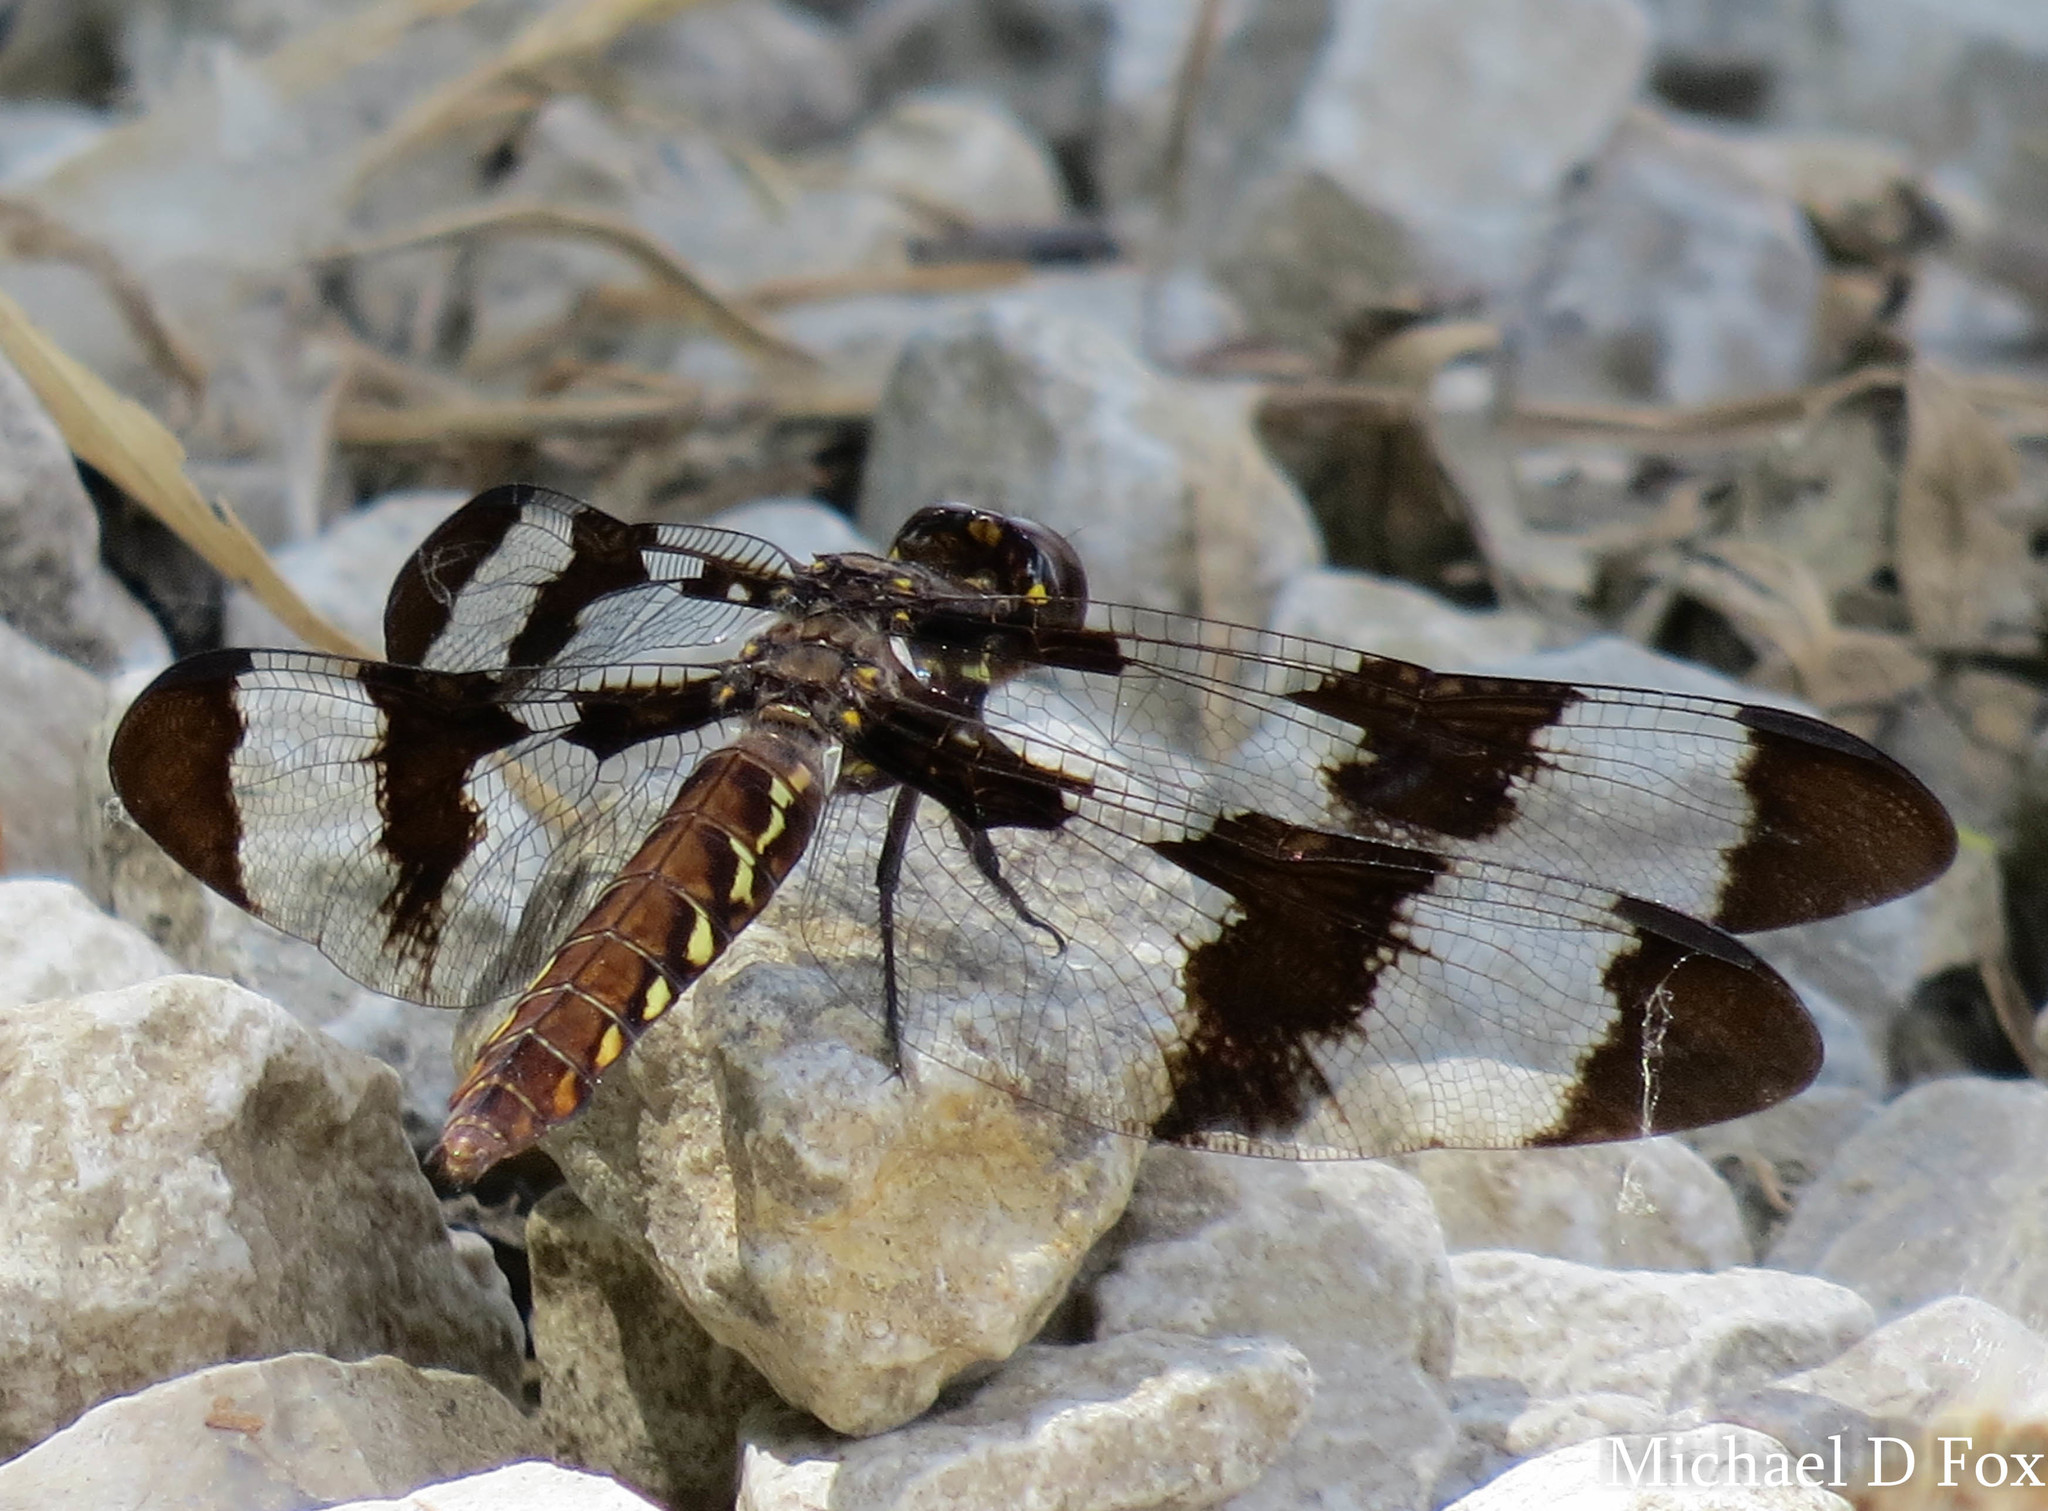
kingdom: Animalia
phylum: Arthropoda
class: Insecta
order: Odonata
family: Libellulidae
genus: Plathemis
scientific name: Plathemis lydia
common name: Common whitetail
